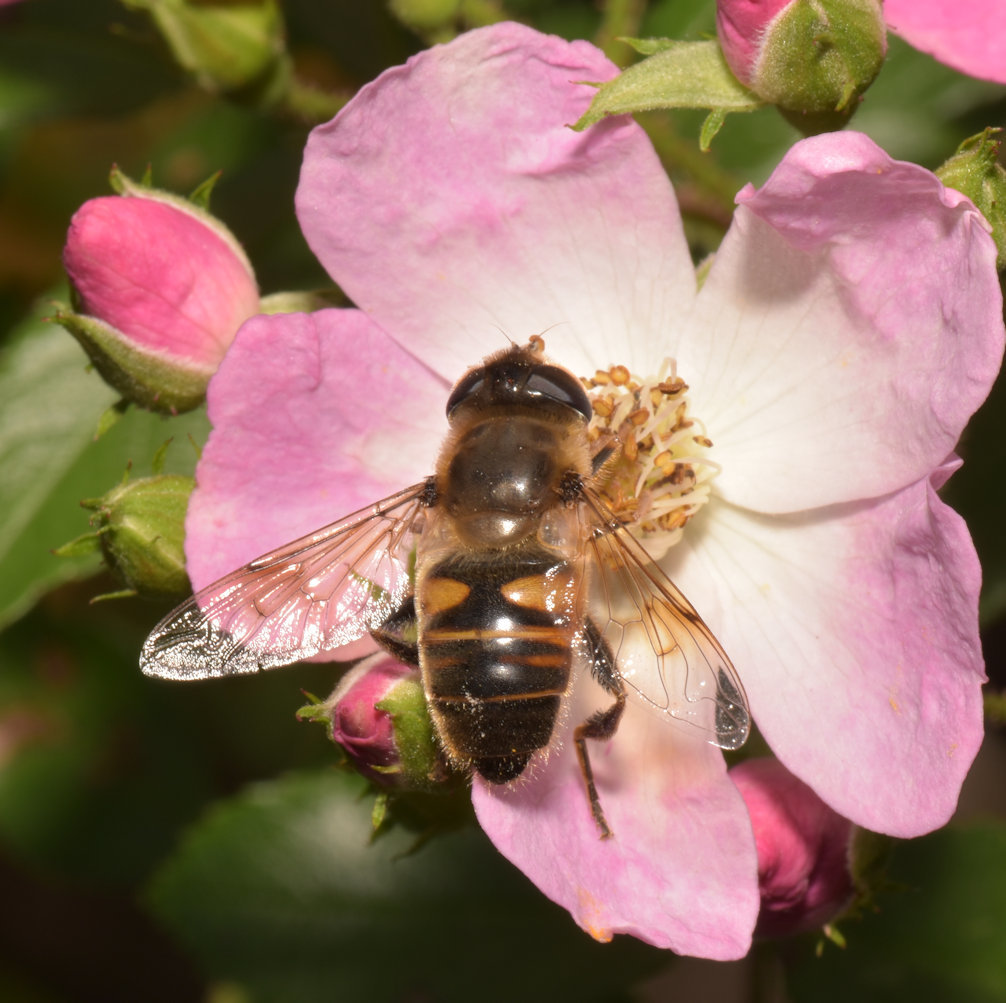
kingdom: Animalia
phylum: Arthropoda
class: Insecta
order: Diptera
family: Syrphidae
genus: Eristalis
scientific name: Eristalis tenax
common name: Drone fly
